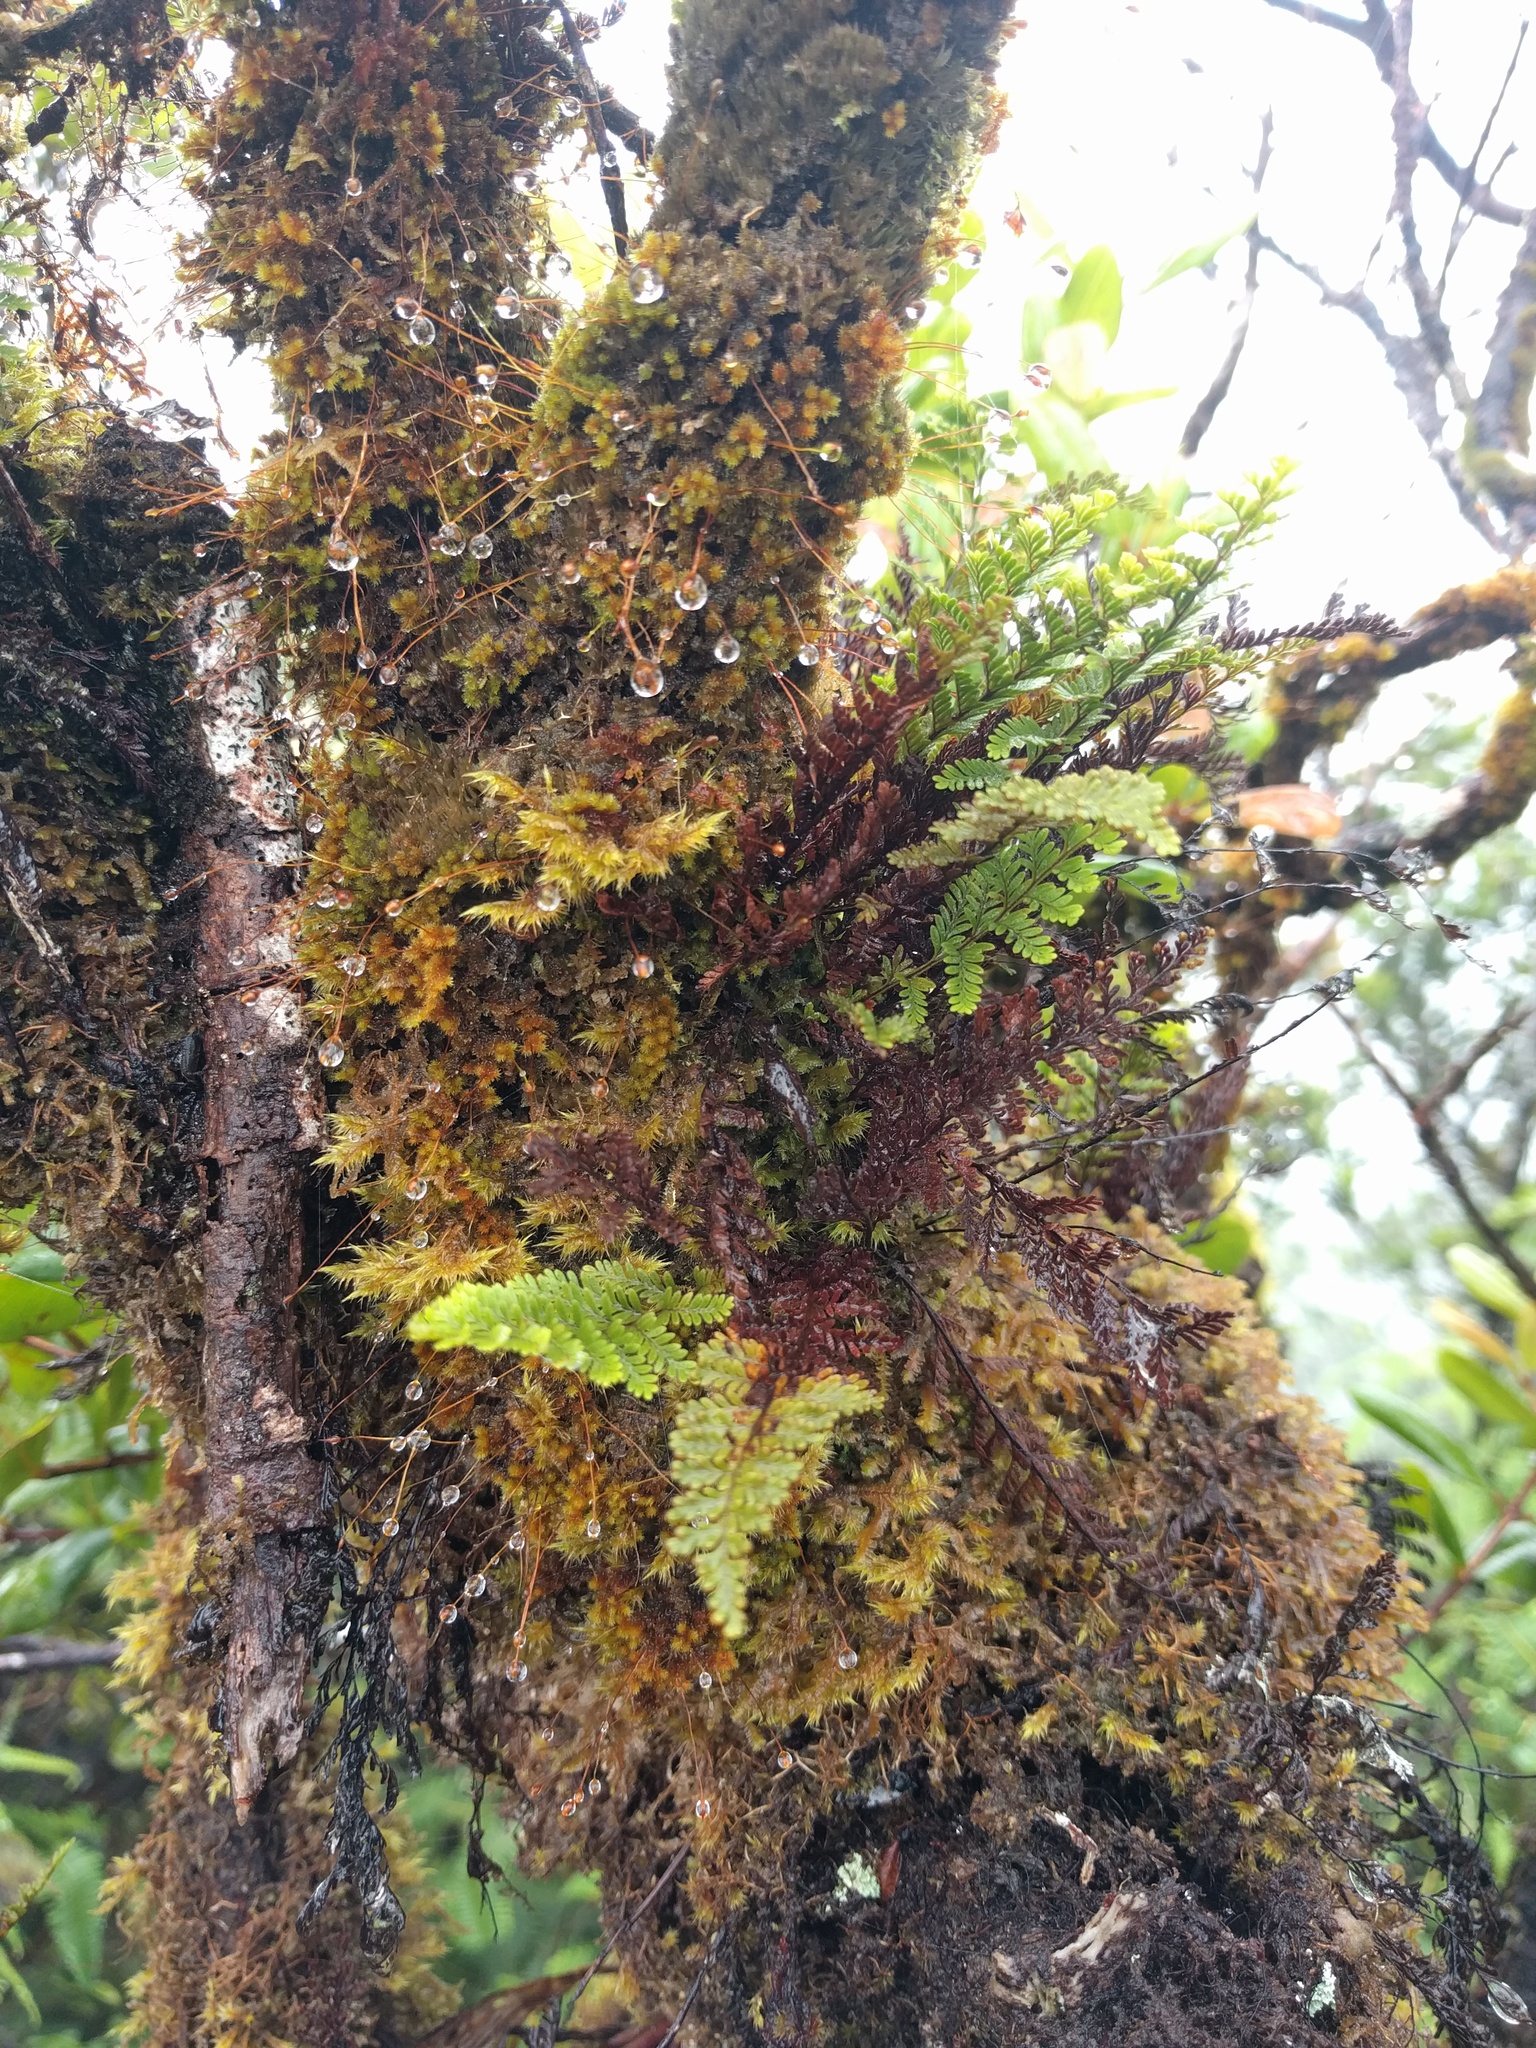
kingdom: Plantae
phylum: Tracheophyta
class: Polypodiopsida
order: Polypodiales
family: Polypodiaceae
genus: Adenophorus
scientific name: Adenophorus tamariscinus
